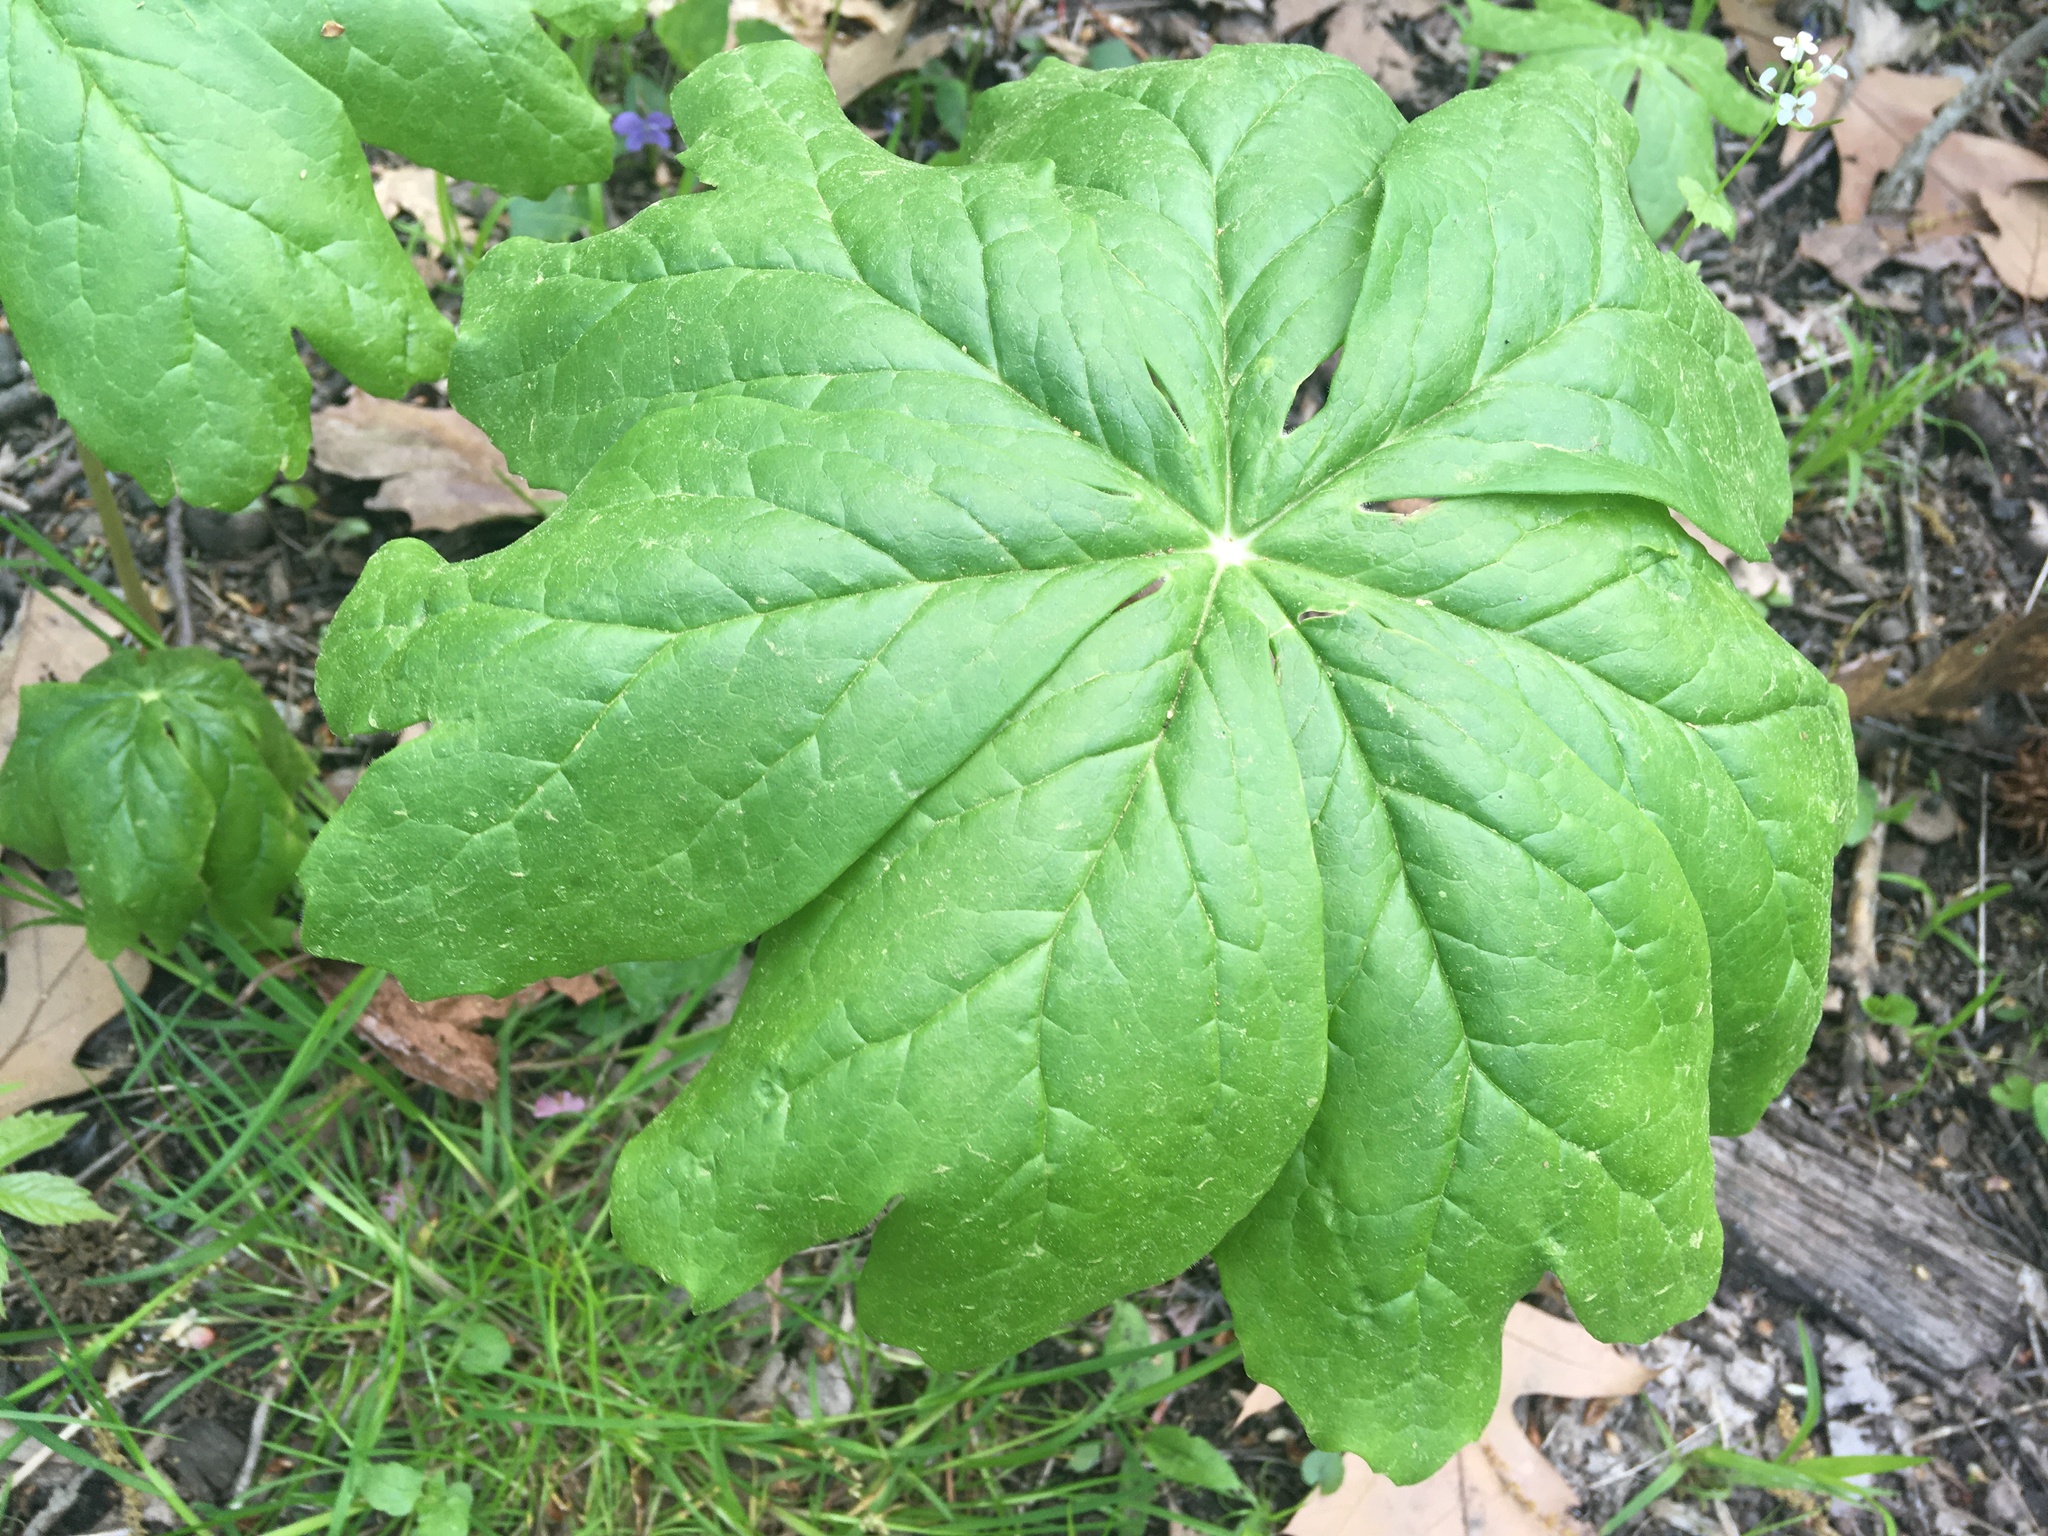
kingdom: Plantae
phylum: Tracheophyta
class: Magnoliopsida
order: Ranunculales
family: Berberidaceae
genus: Podophyllum
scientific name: Podophyllum peltatum
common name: Wild mandrake
